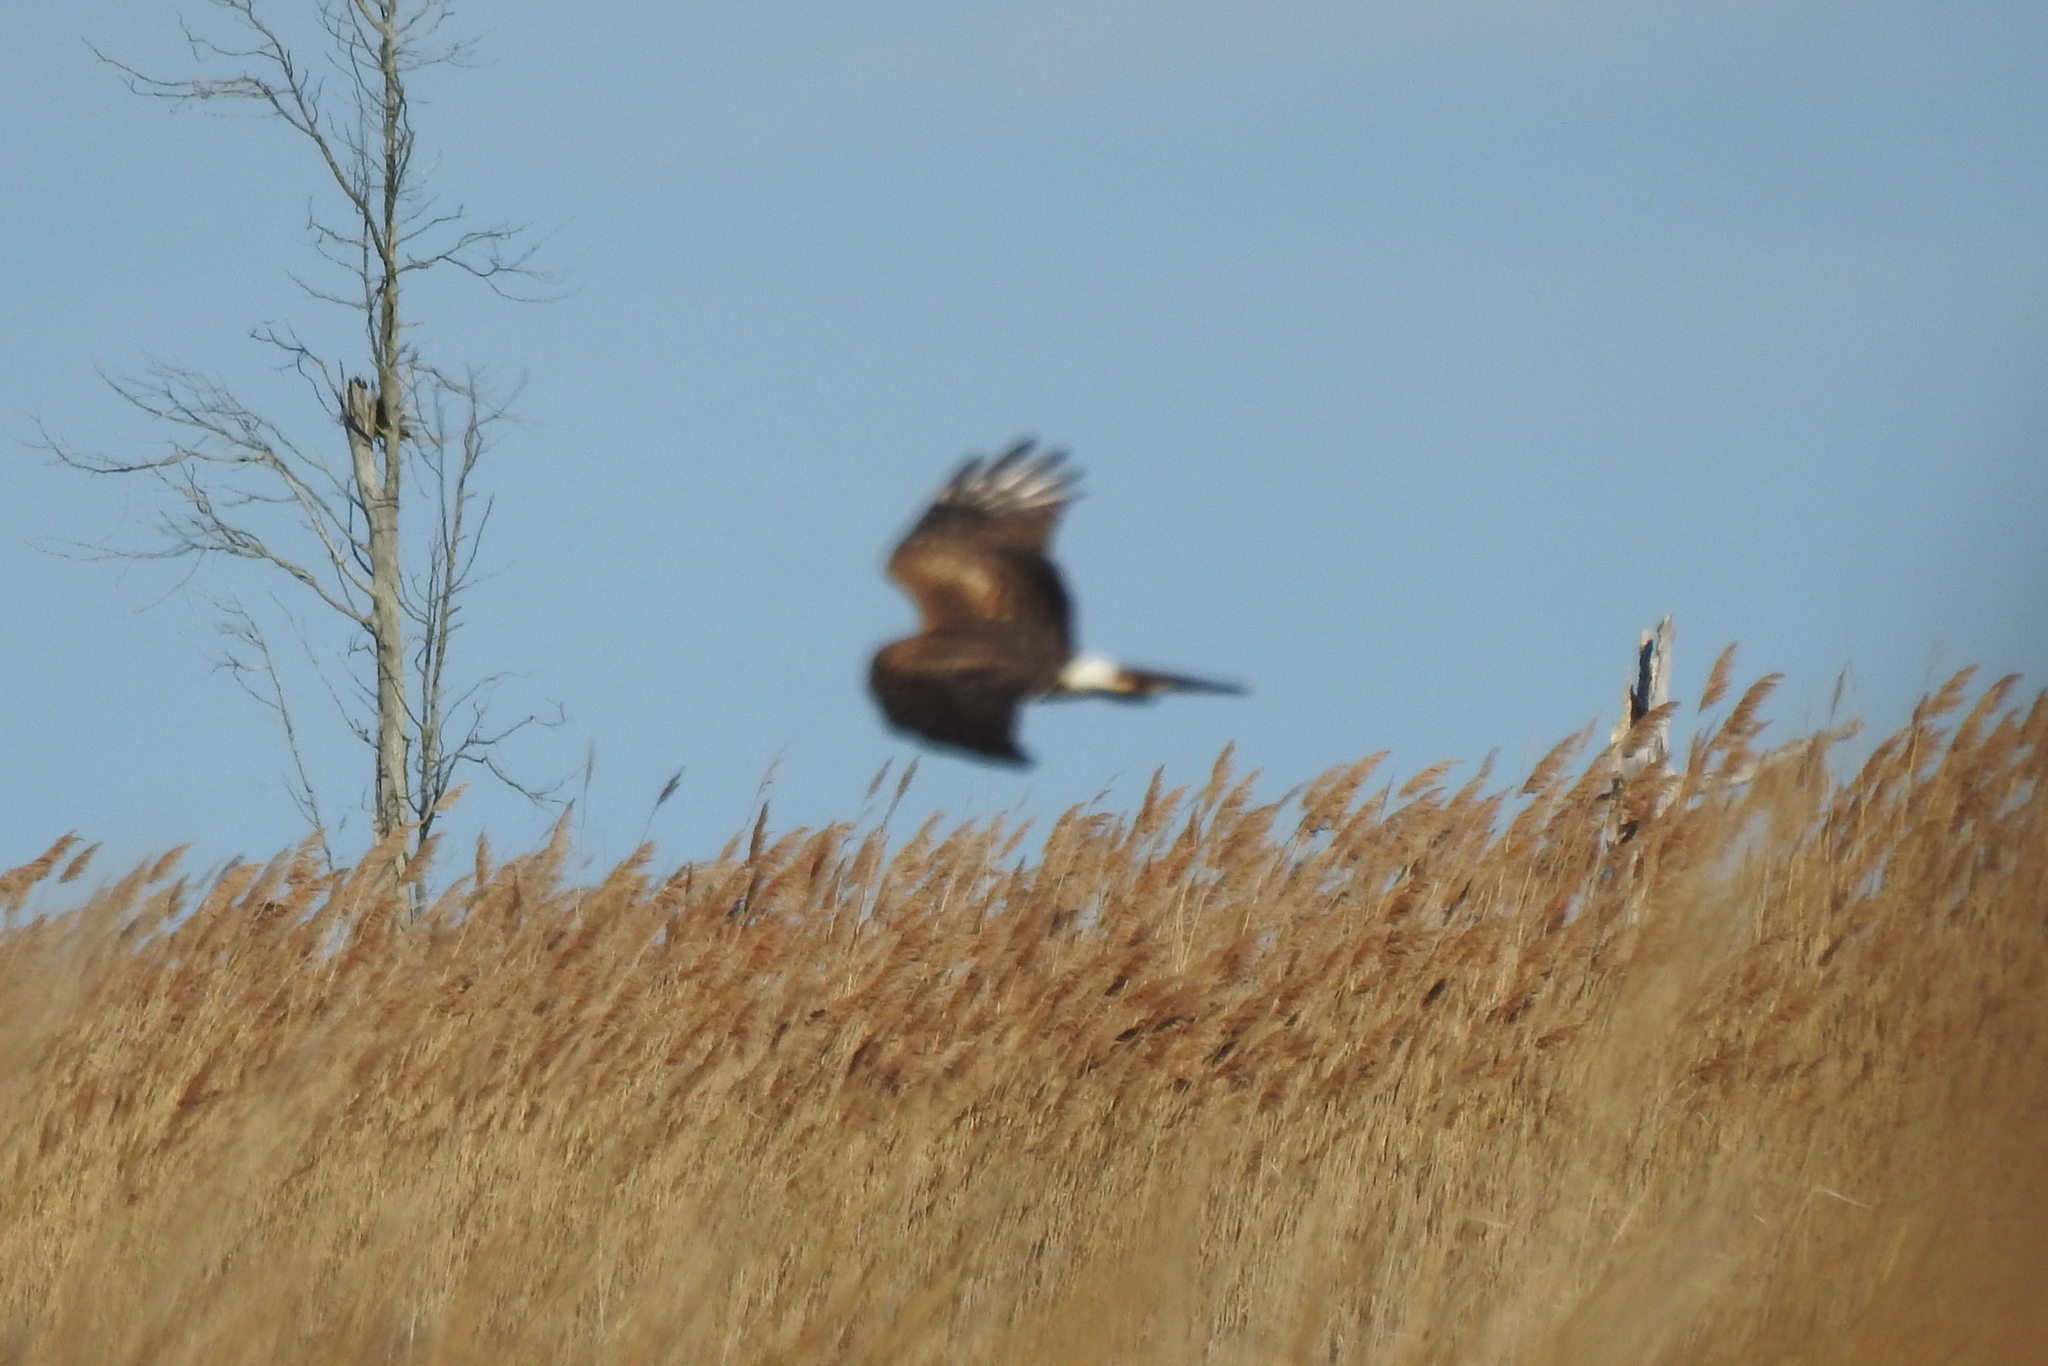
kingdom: Animalia
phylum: Chordata
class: Aves
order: Accipitriformes
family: Accipitridae
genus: Circus
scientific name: Circus cyaneus
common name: Hen harrier
